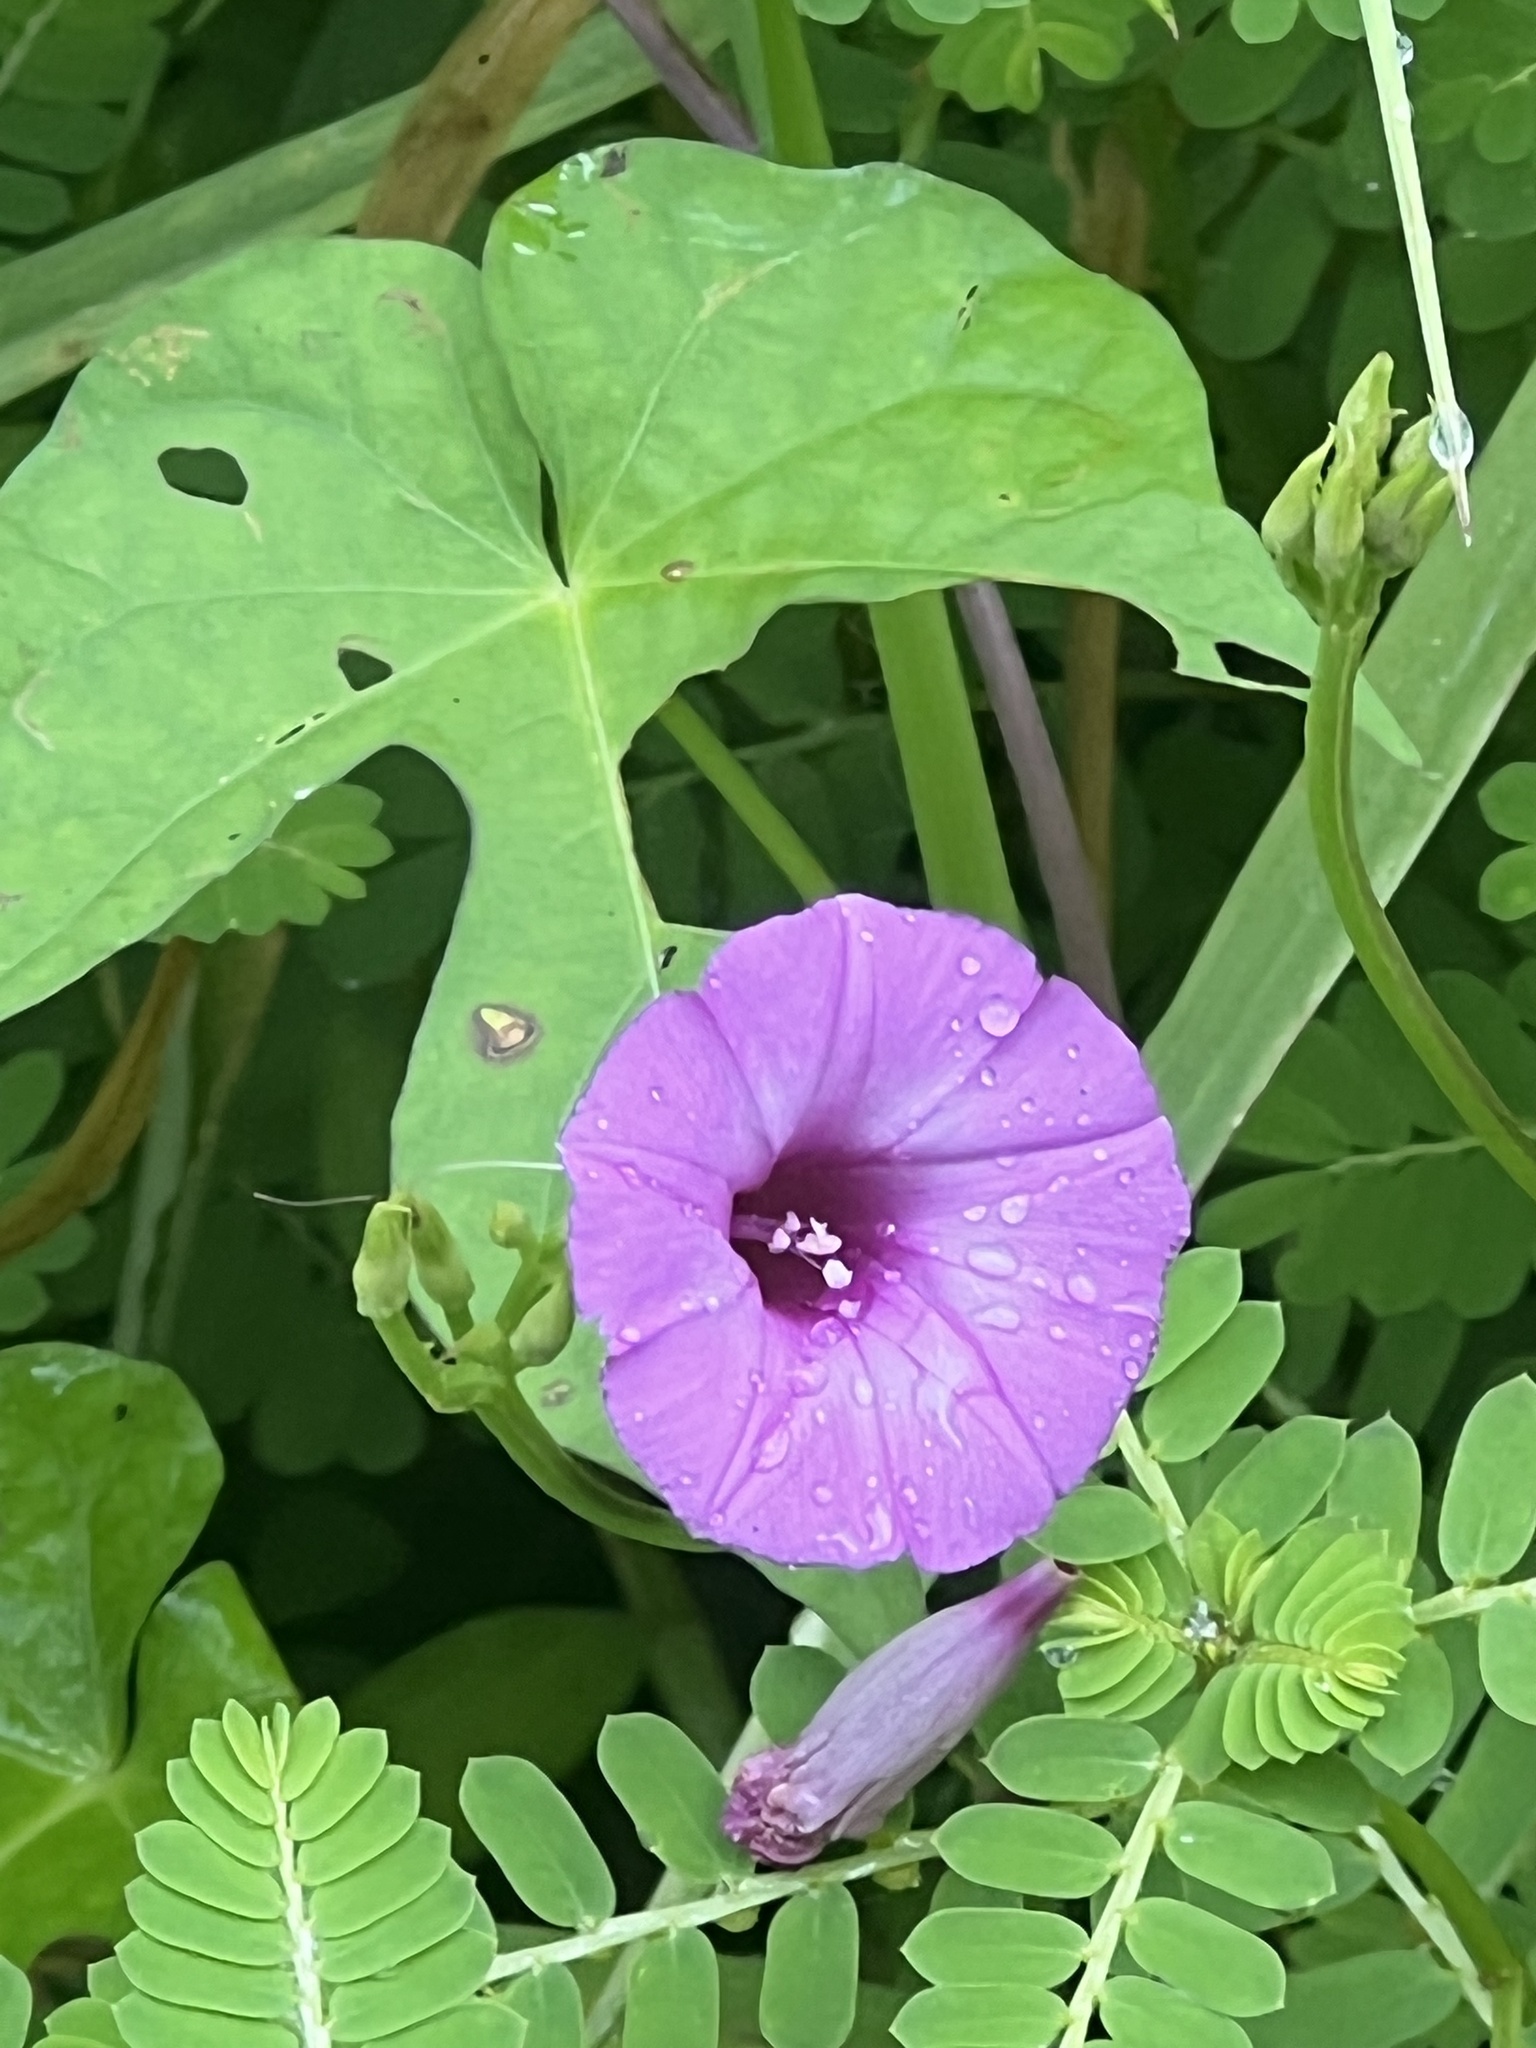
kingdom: Plantae
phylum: Tracheophyta
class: Magnoliopsida
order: Solanales
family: Convolvulaceae
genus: Ipomoea
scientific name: Ipomoea cordatotriloba
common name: Cotton morning glory
